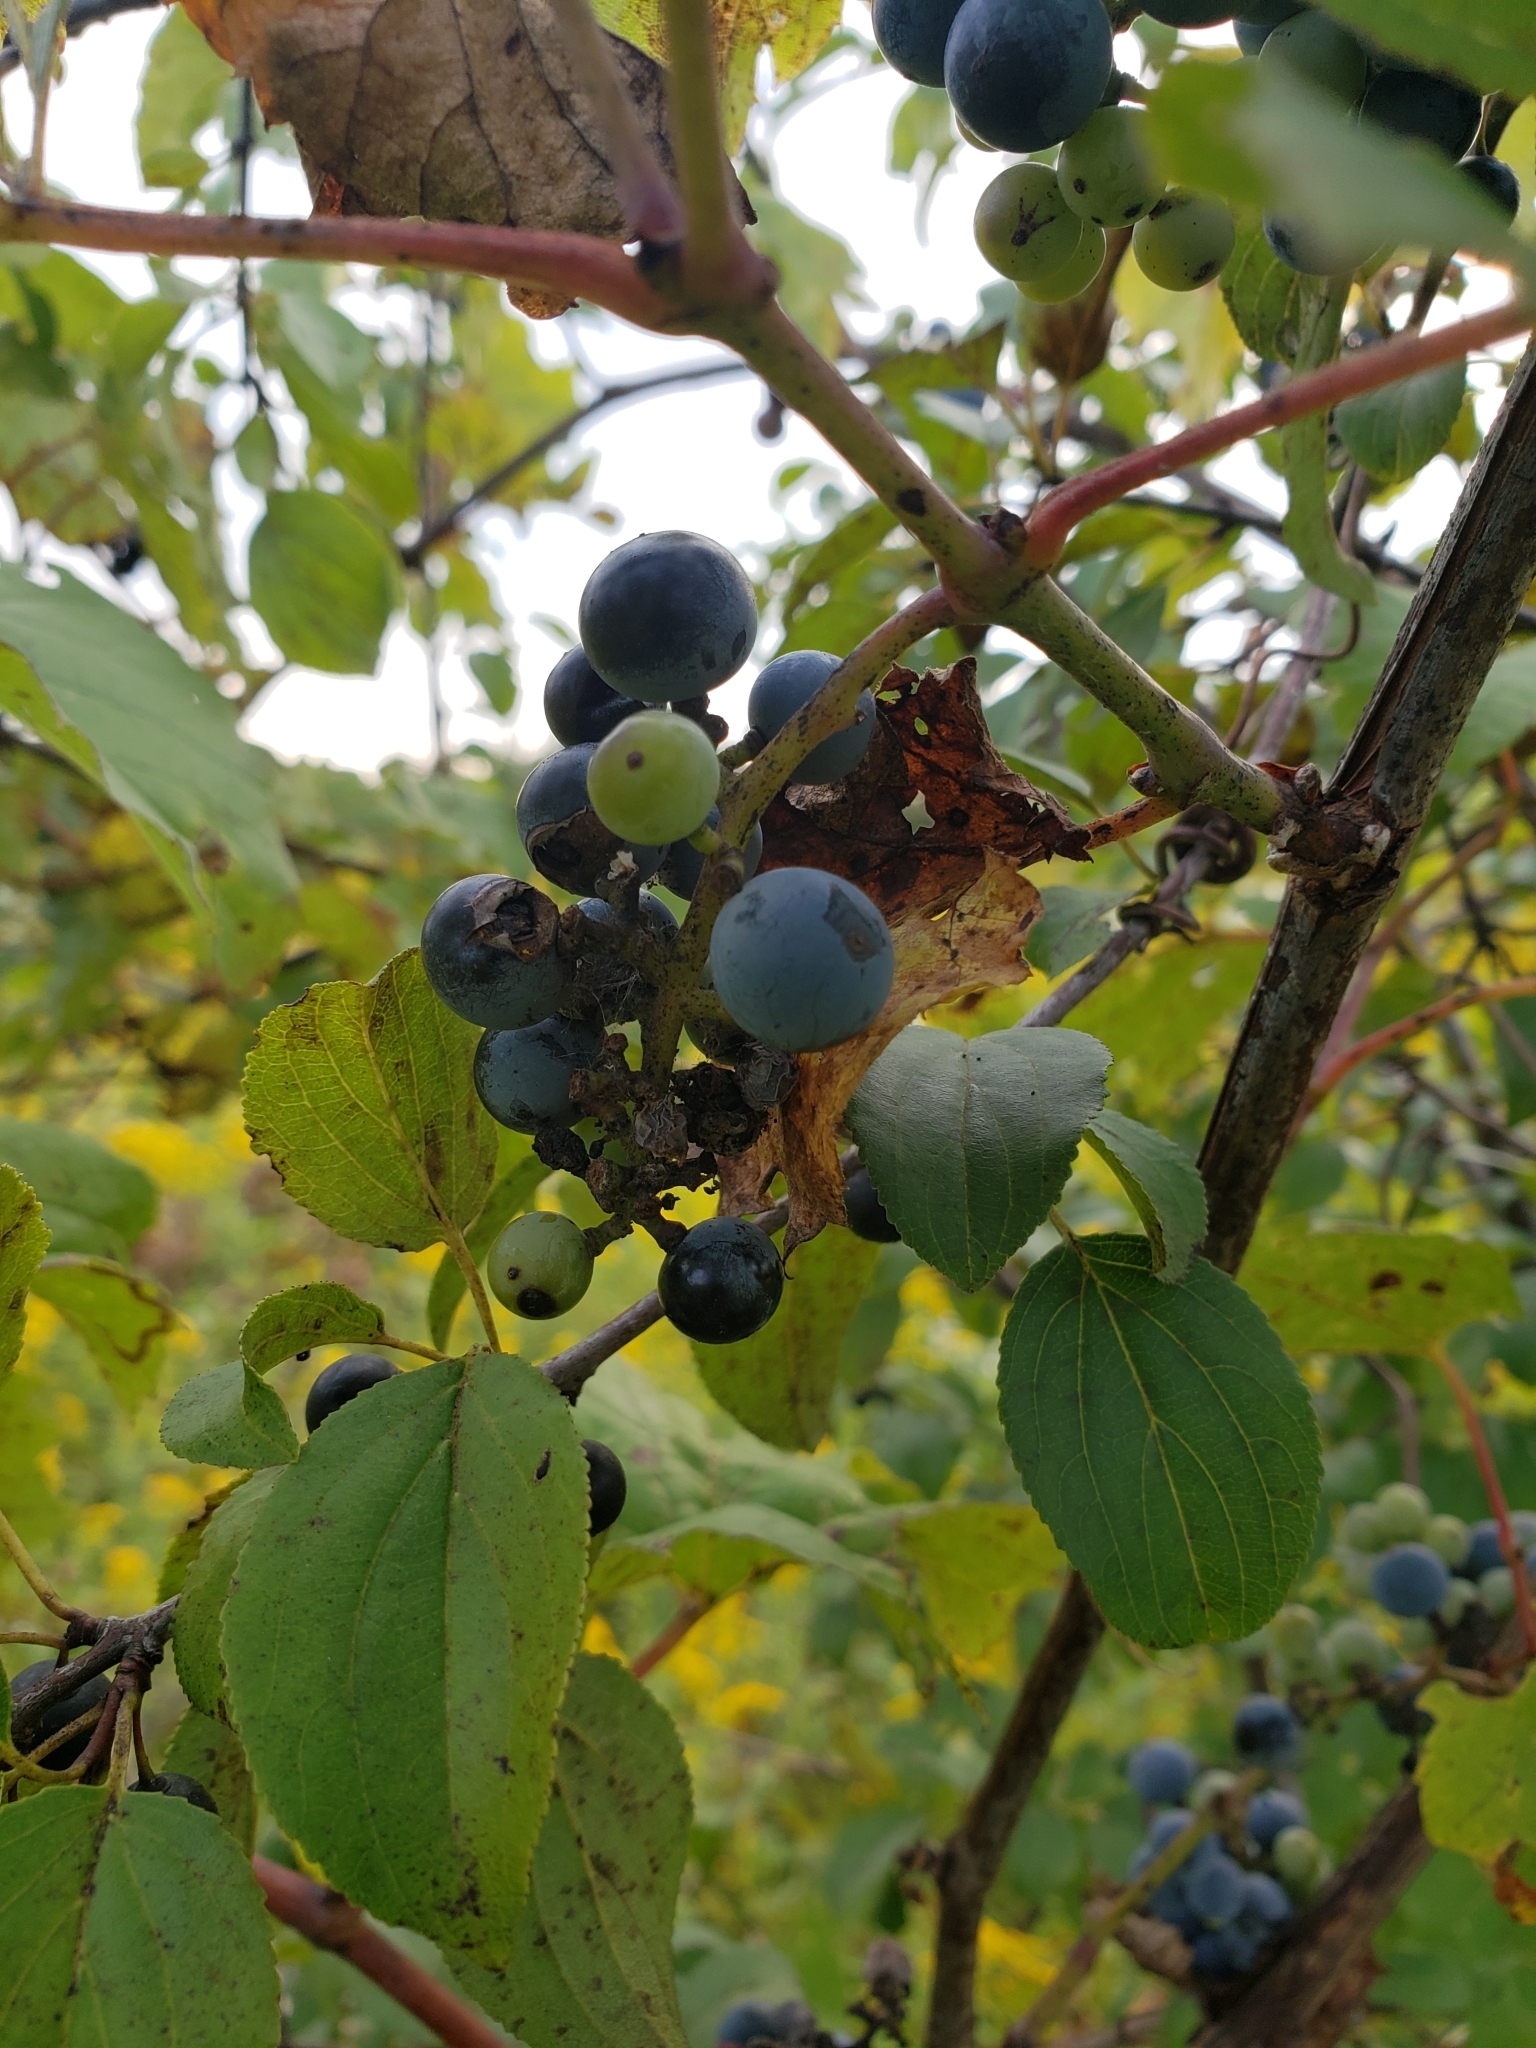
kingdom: Plantae
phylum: Tracheophyta
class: Magnoliopsida
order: Vitales
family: Vitaceae
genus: Vitis
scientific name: Vitis riparia
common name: Frost grape
